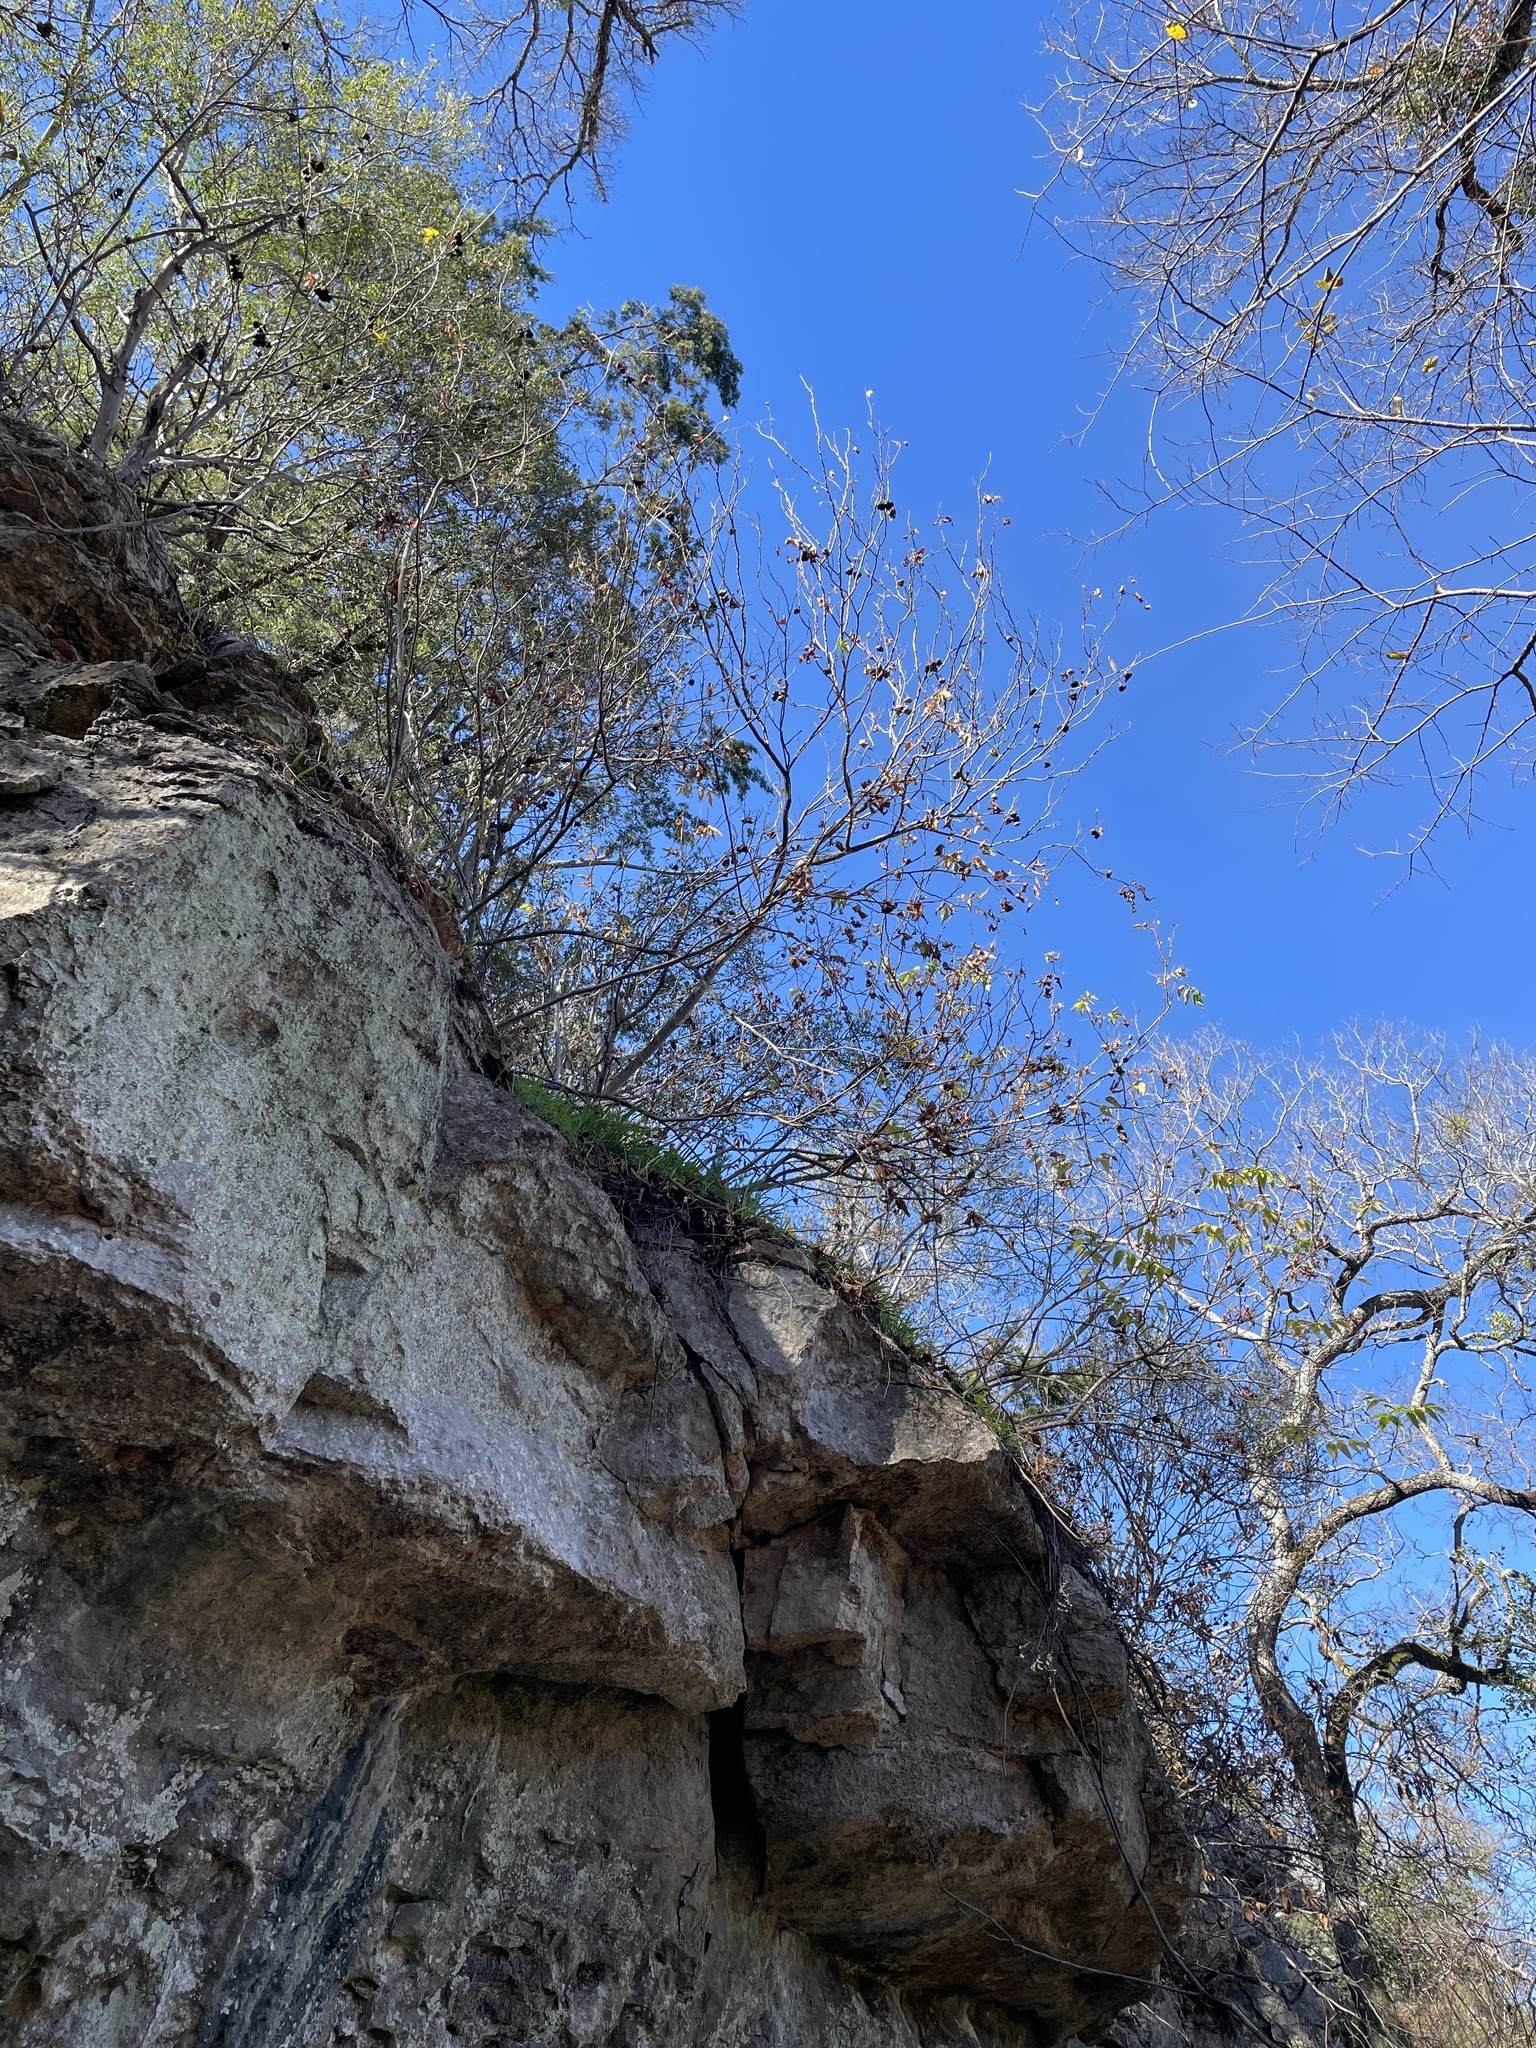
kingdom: Plantae
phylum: Tracheophyta
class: Magnoliopsida
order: Sapindales
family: Sapindaceae
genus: Ungnadia
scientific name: Ungnadia speciosa
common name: Texas-buckeye
